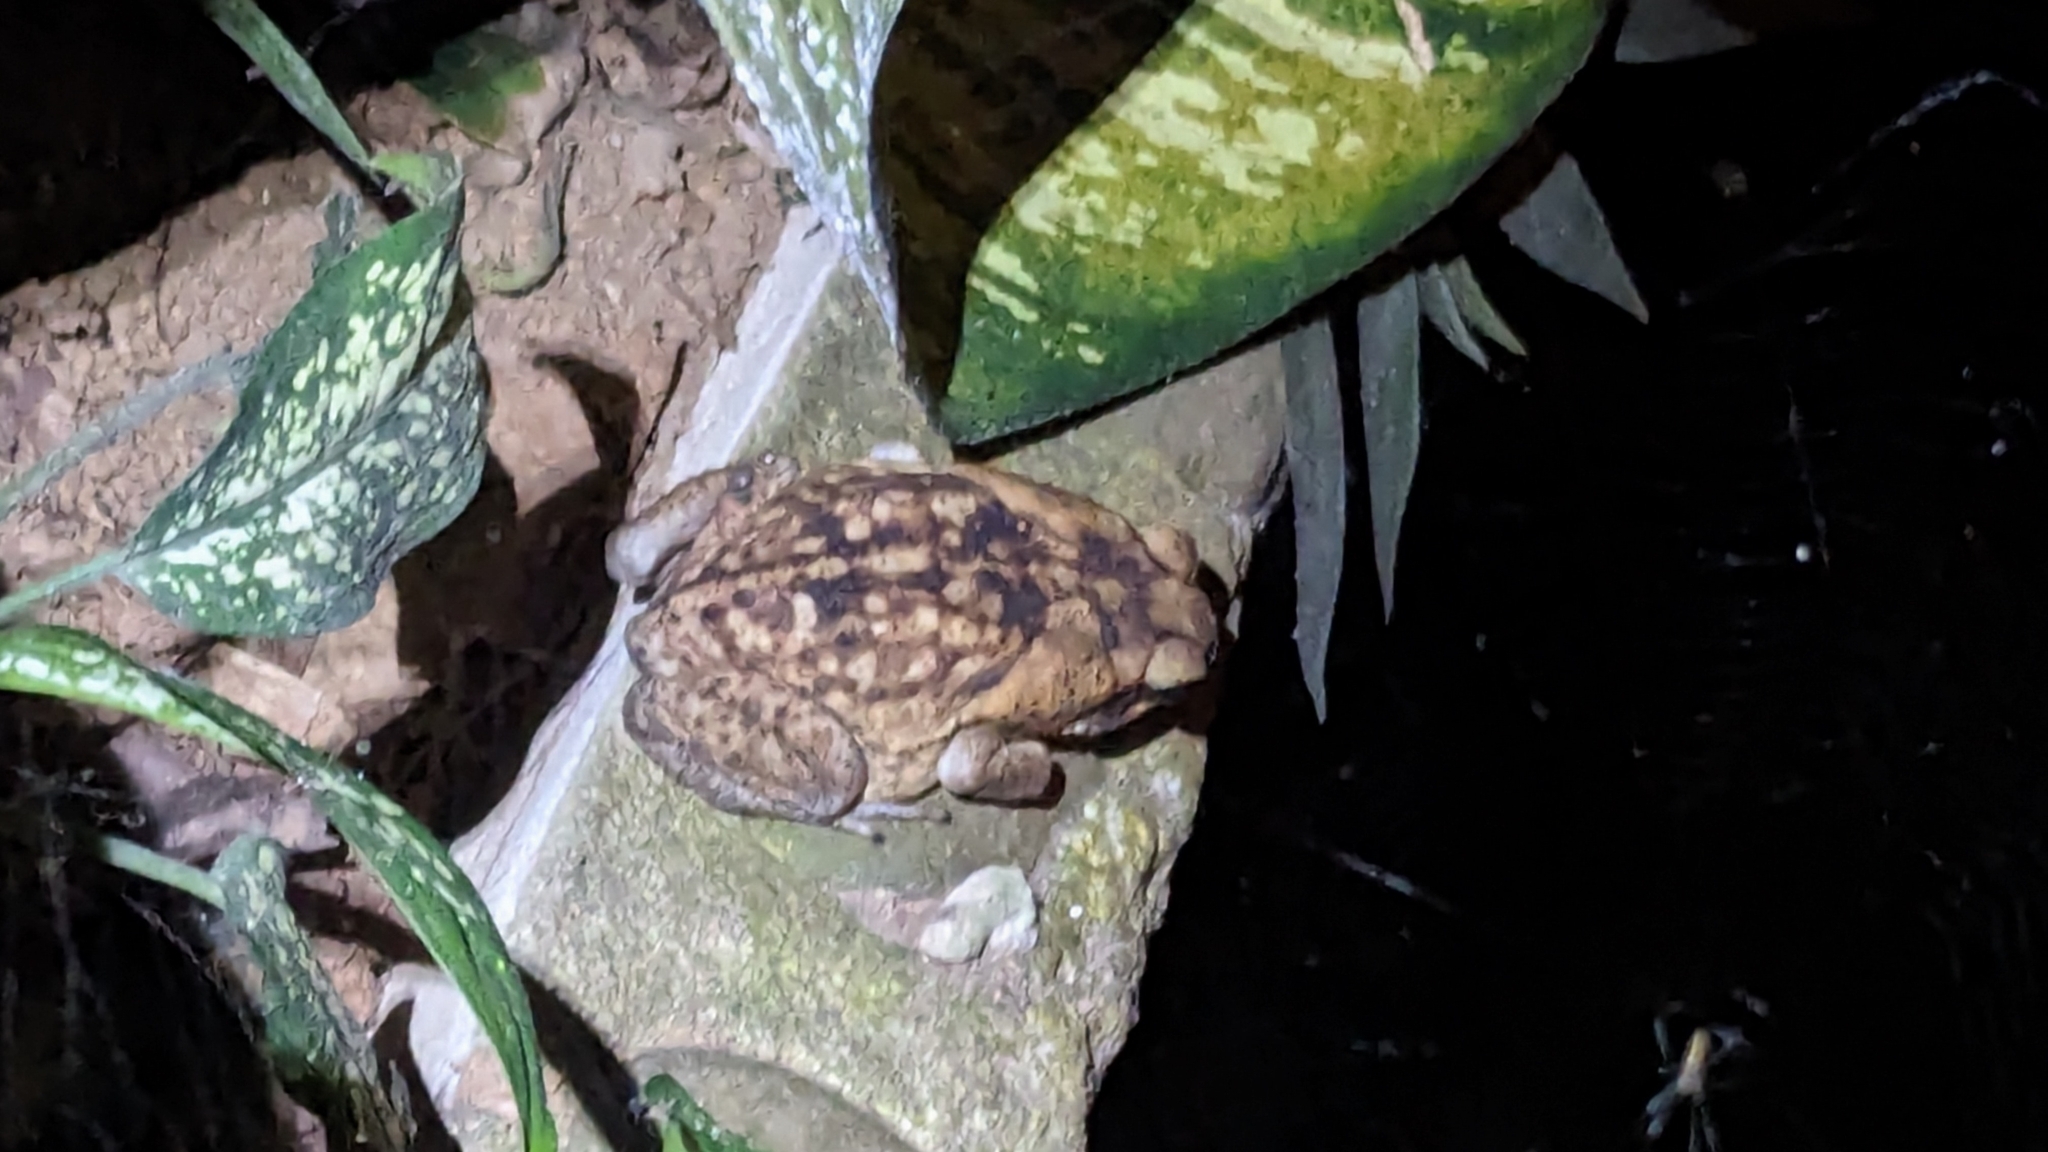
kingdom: Animalia
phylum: Chordata
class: Amphibia
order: Anura
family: Bufonidae
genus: Rhinella
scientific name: Rhinella horribilis
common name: Mesoamerican cane toad
